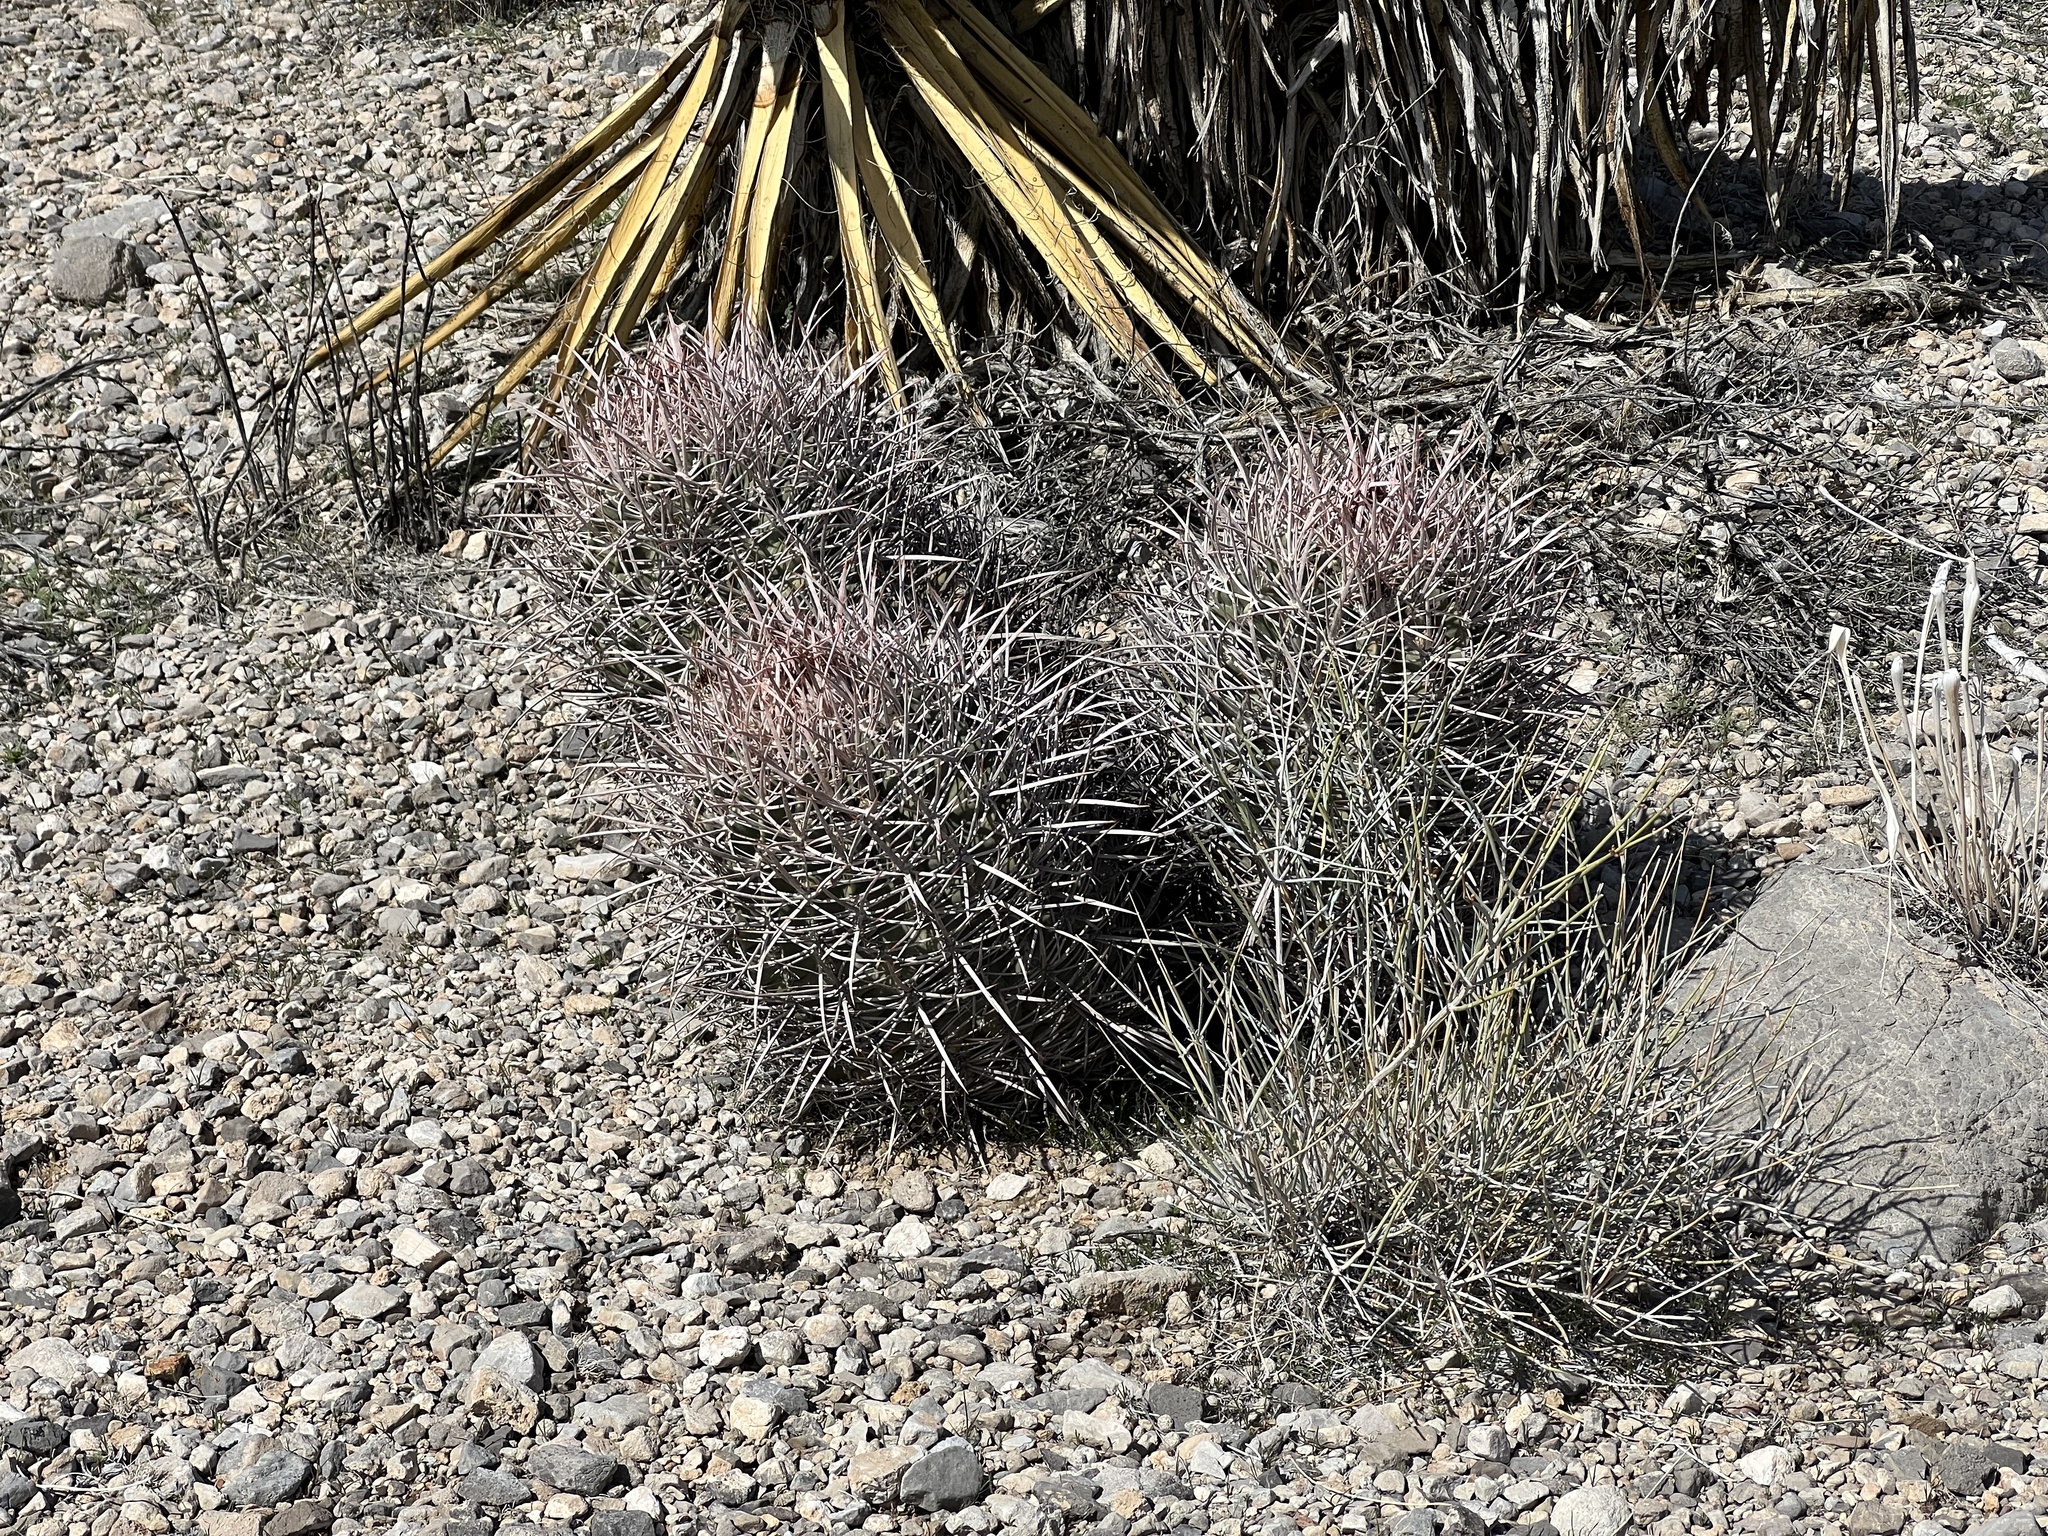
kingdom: Plantae
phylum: Tracheophyta
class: Magnoliopsida
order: Caryophyllales
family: Cactaceae
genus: Echinocactus
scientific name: Echinocactus polycephalus
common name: Cottontop cactus
